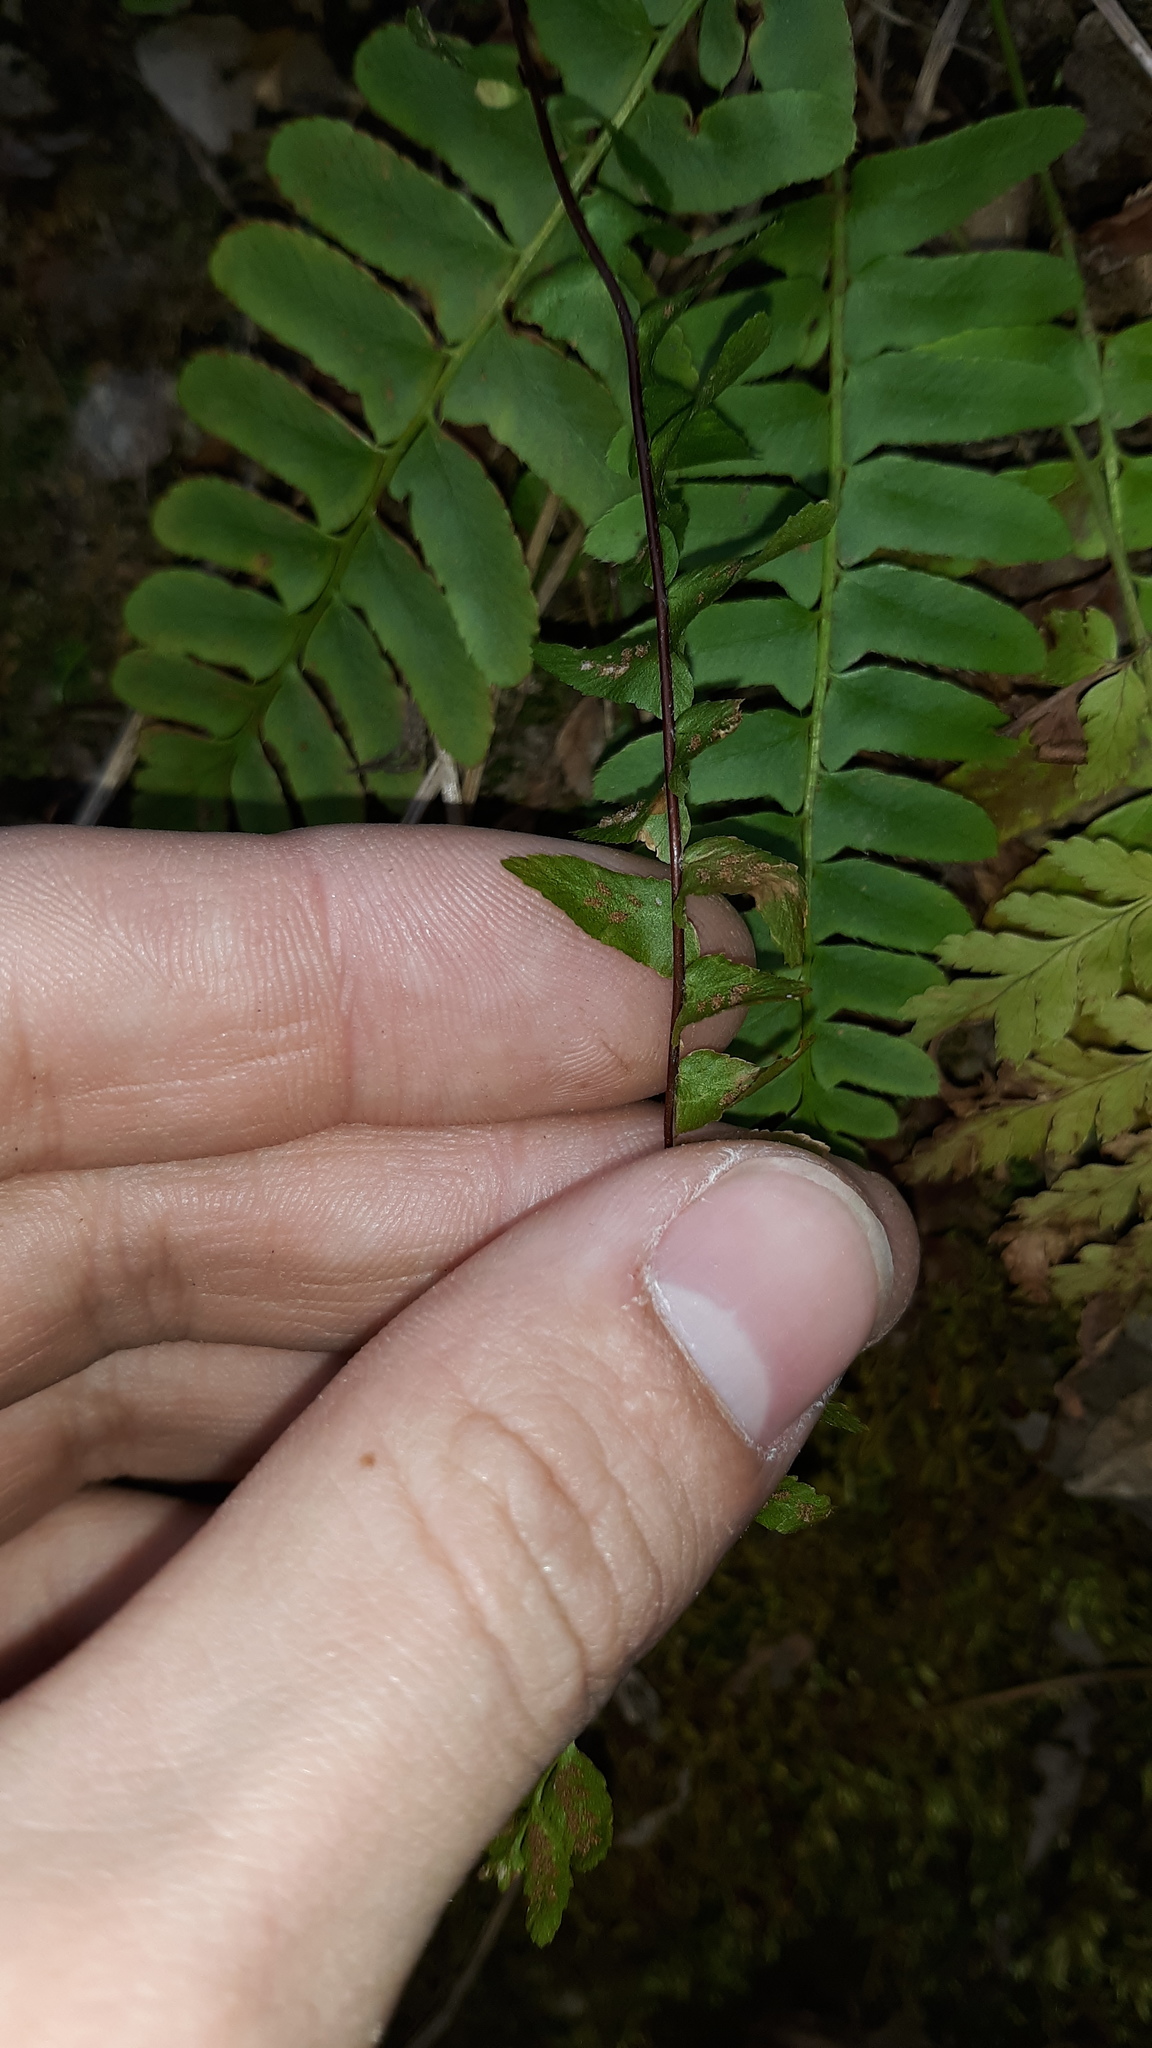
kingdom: Plantae
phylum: Tracheophyta
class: Polypodiopsida
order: Polypodiales
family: Aspleniaceae
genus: Asplenium
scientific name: Asplenium platyneuron
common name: Ebony spleenwort
